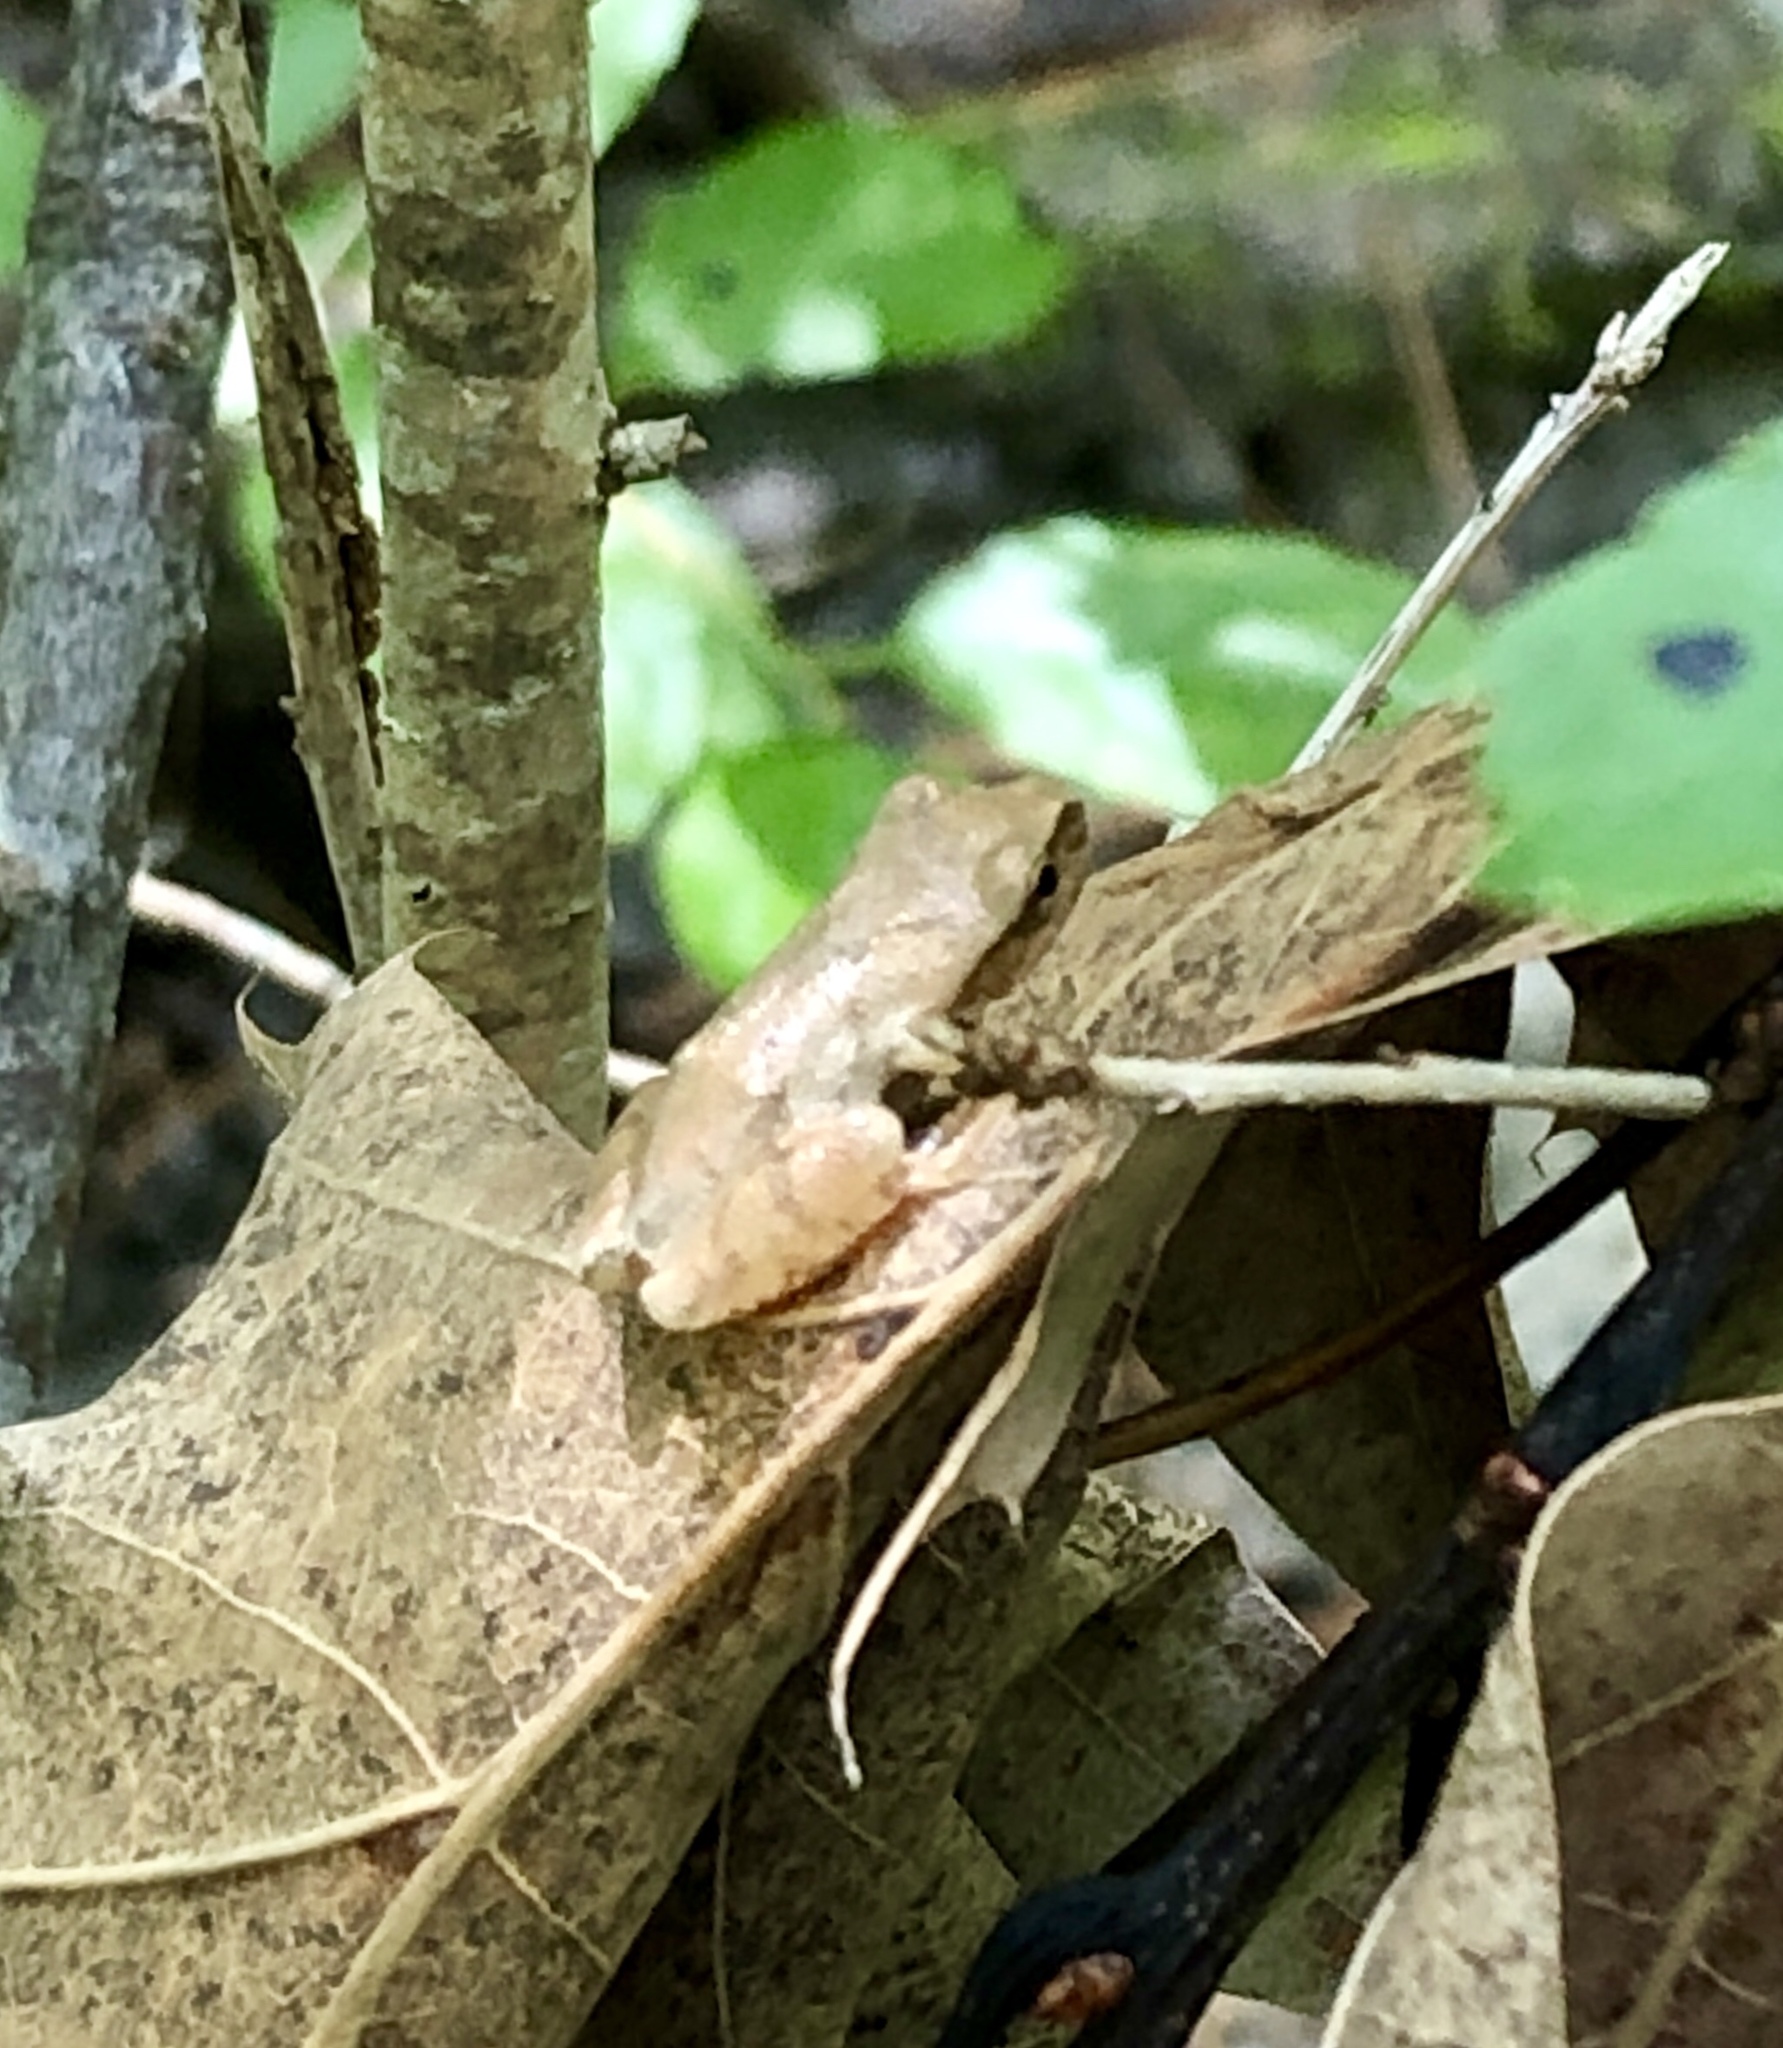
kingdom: Animalia
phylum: Chordata
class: Amphibia
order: Anura
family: Hylidae
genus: Pseudacris
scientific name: Pseudacris crucifer
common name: Spring peeper
